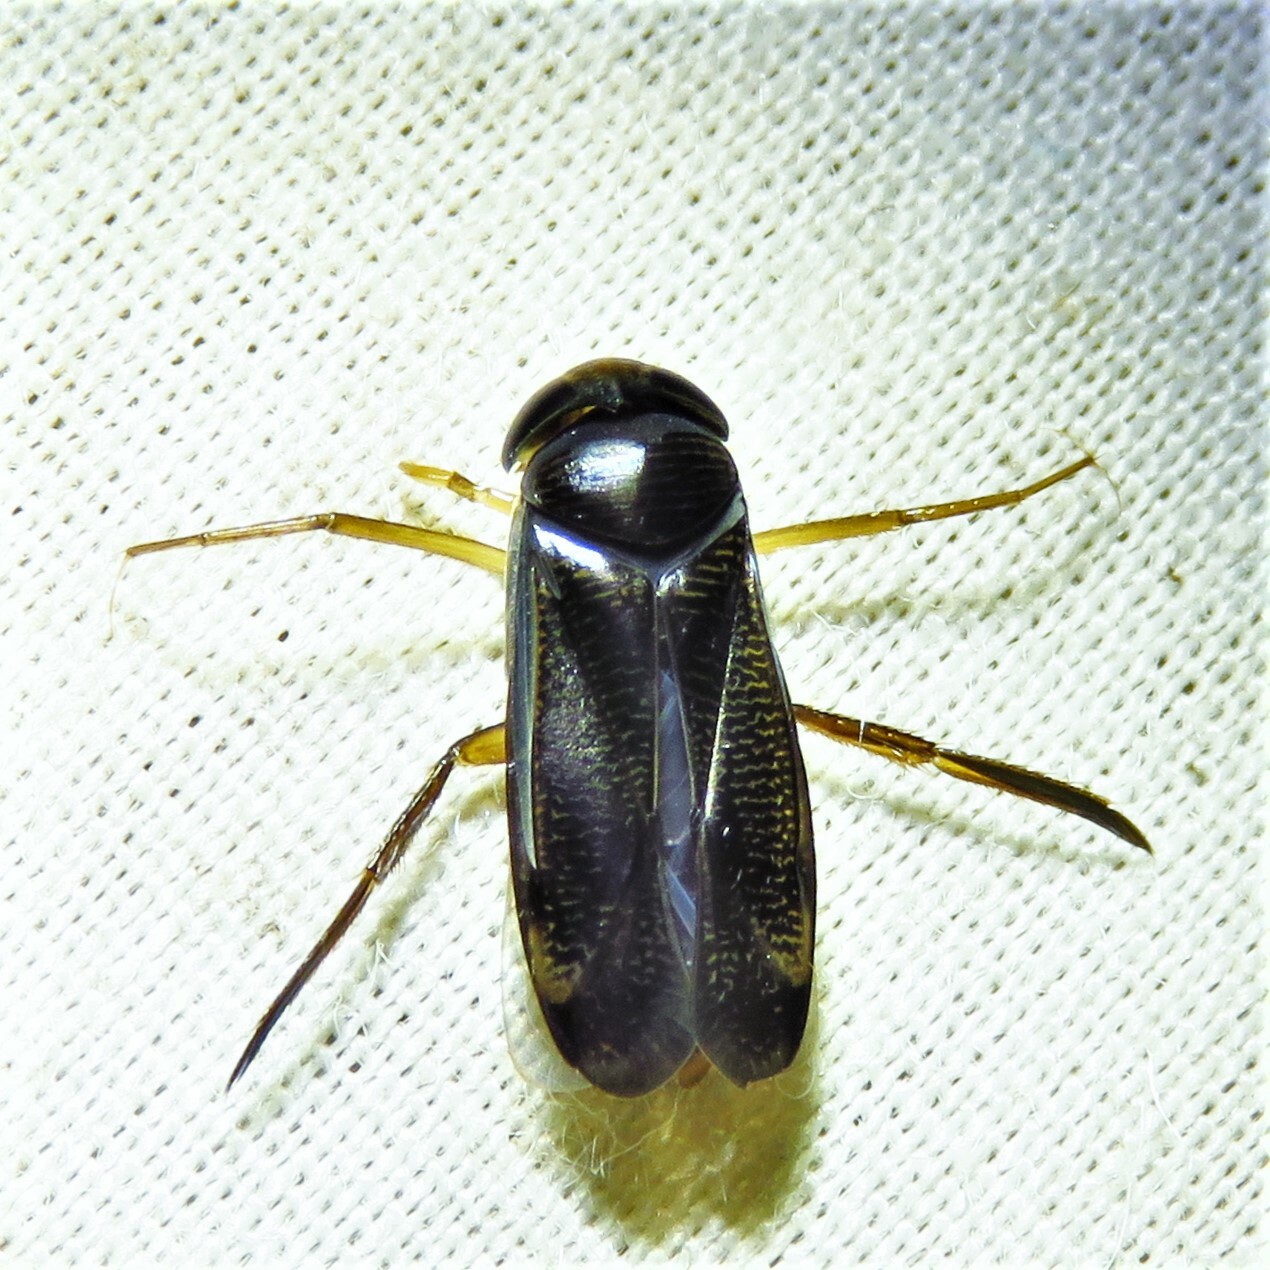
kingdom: Animalia
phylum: Arthropoda
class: Insecta
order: Hemiptera
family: Corixidae
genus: Hesperocorixa
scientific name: Hesperocorixa
